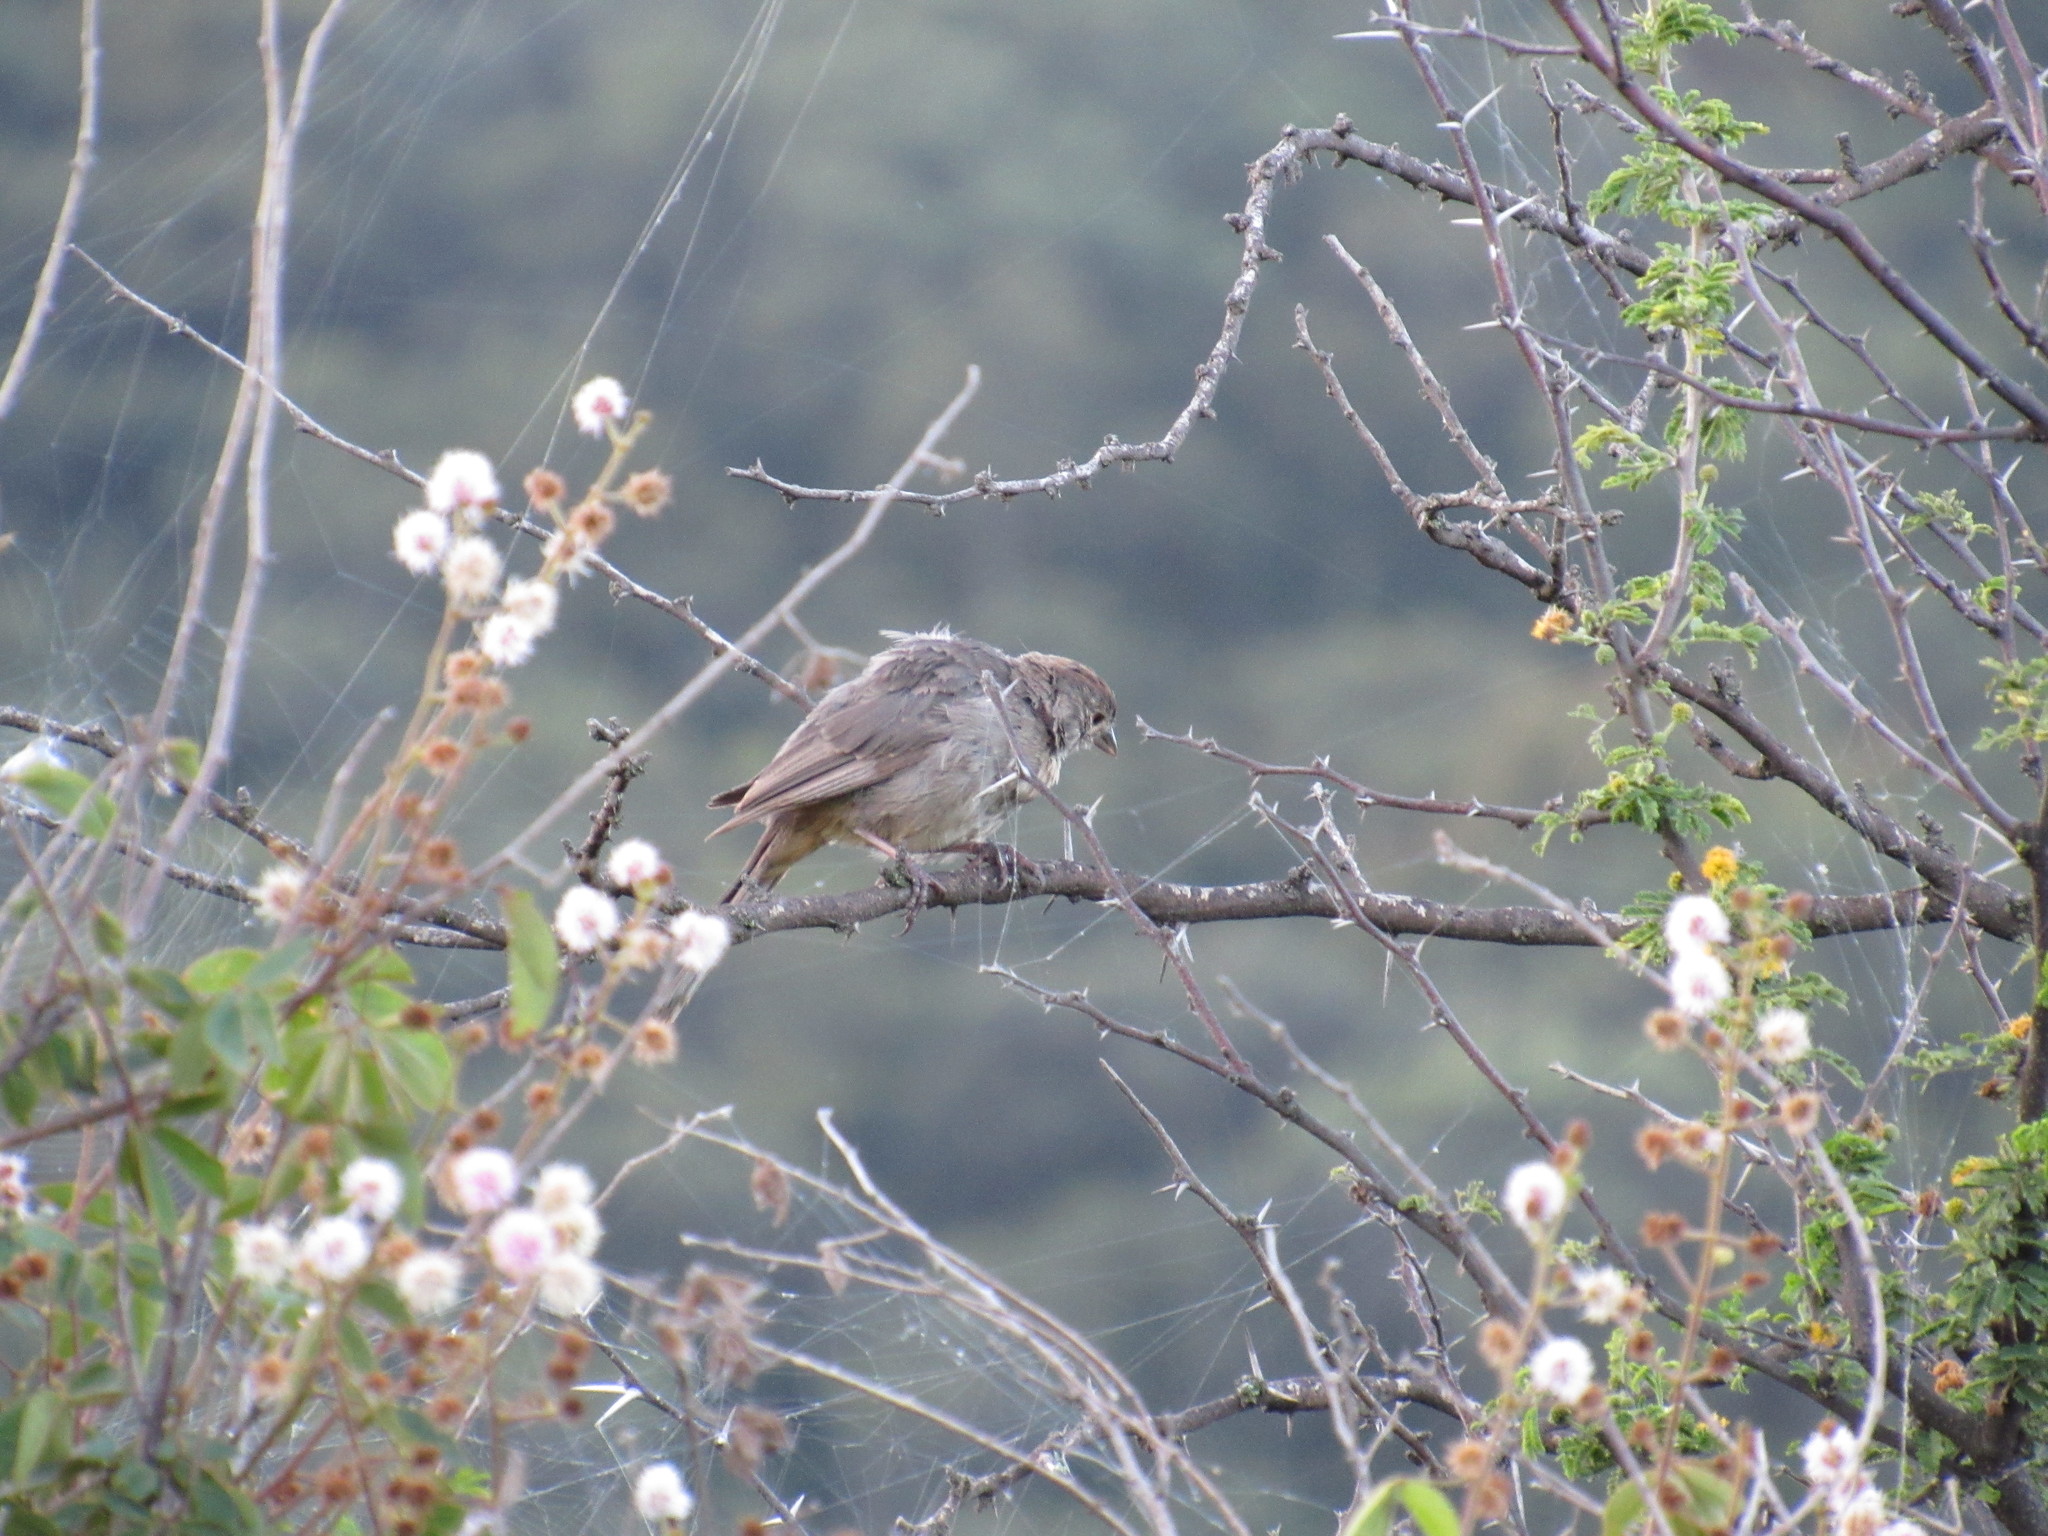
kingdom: Animalia
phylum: Chordata
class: Aves
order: Passeriformes
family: Passerellidae
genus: Melozone
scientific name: Melozone fusca
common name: Canyon towhee
